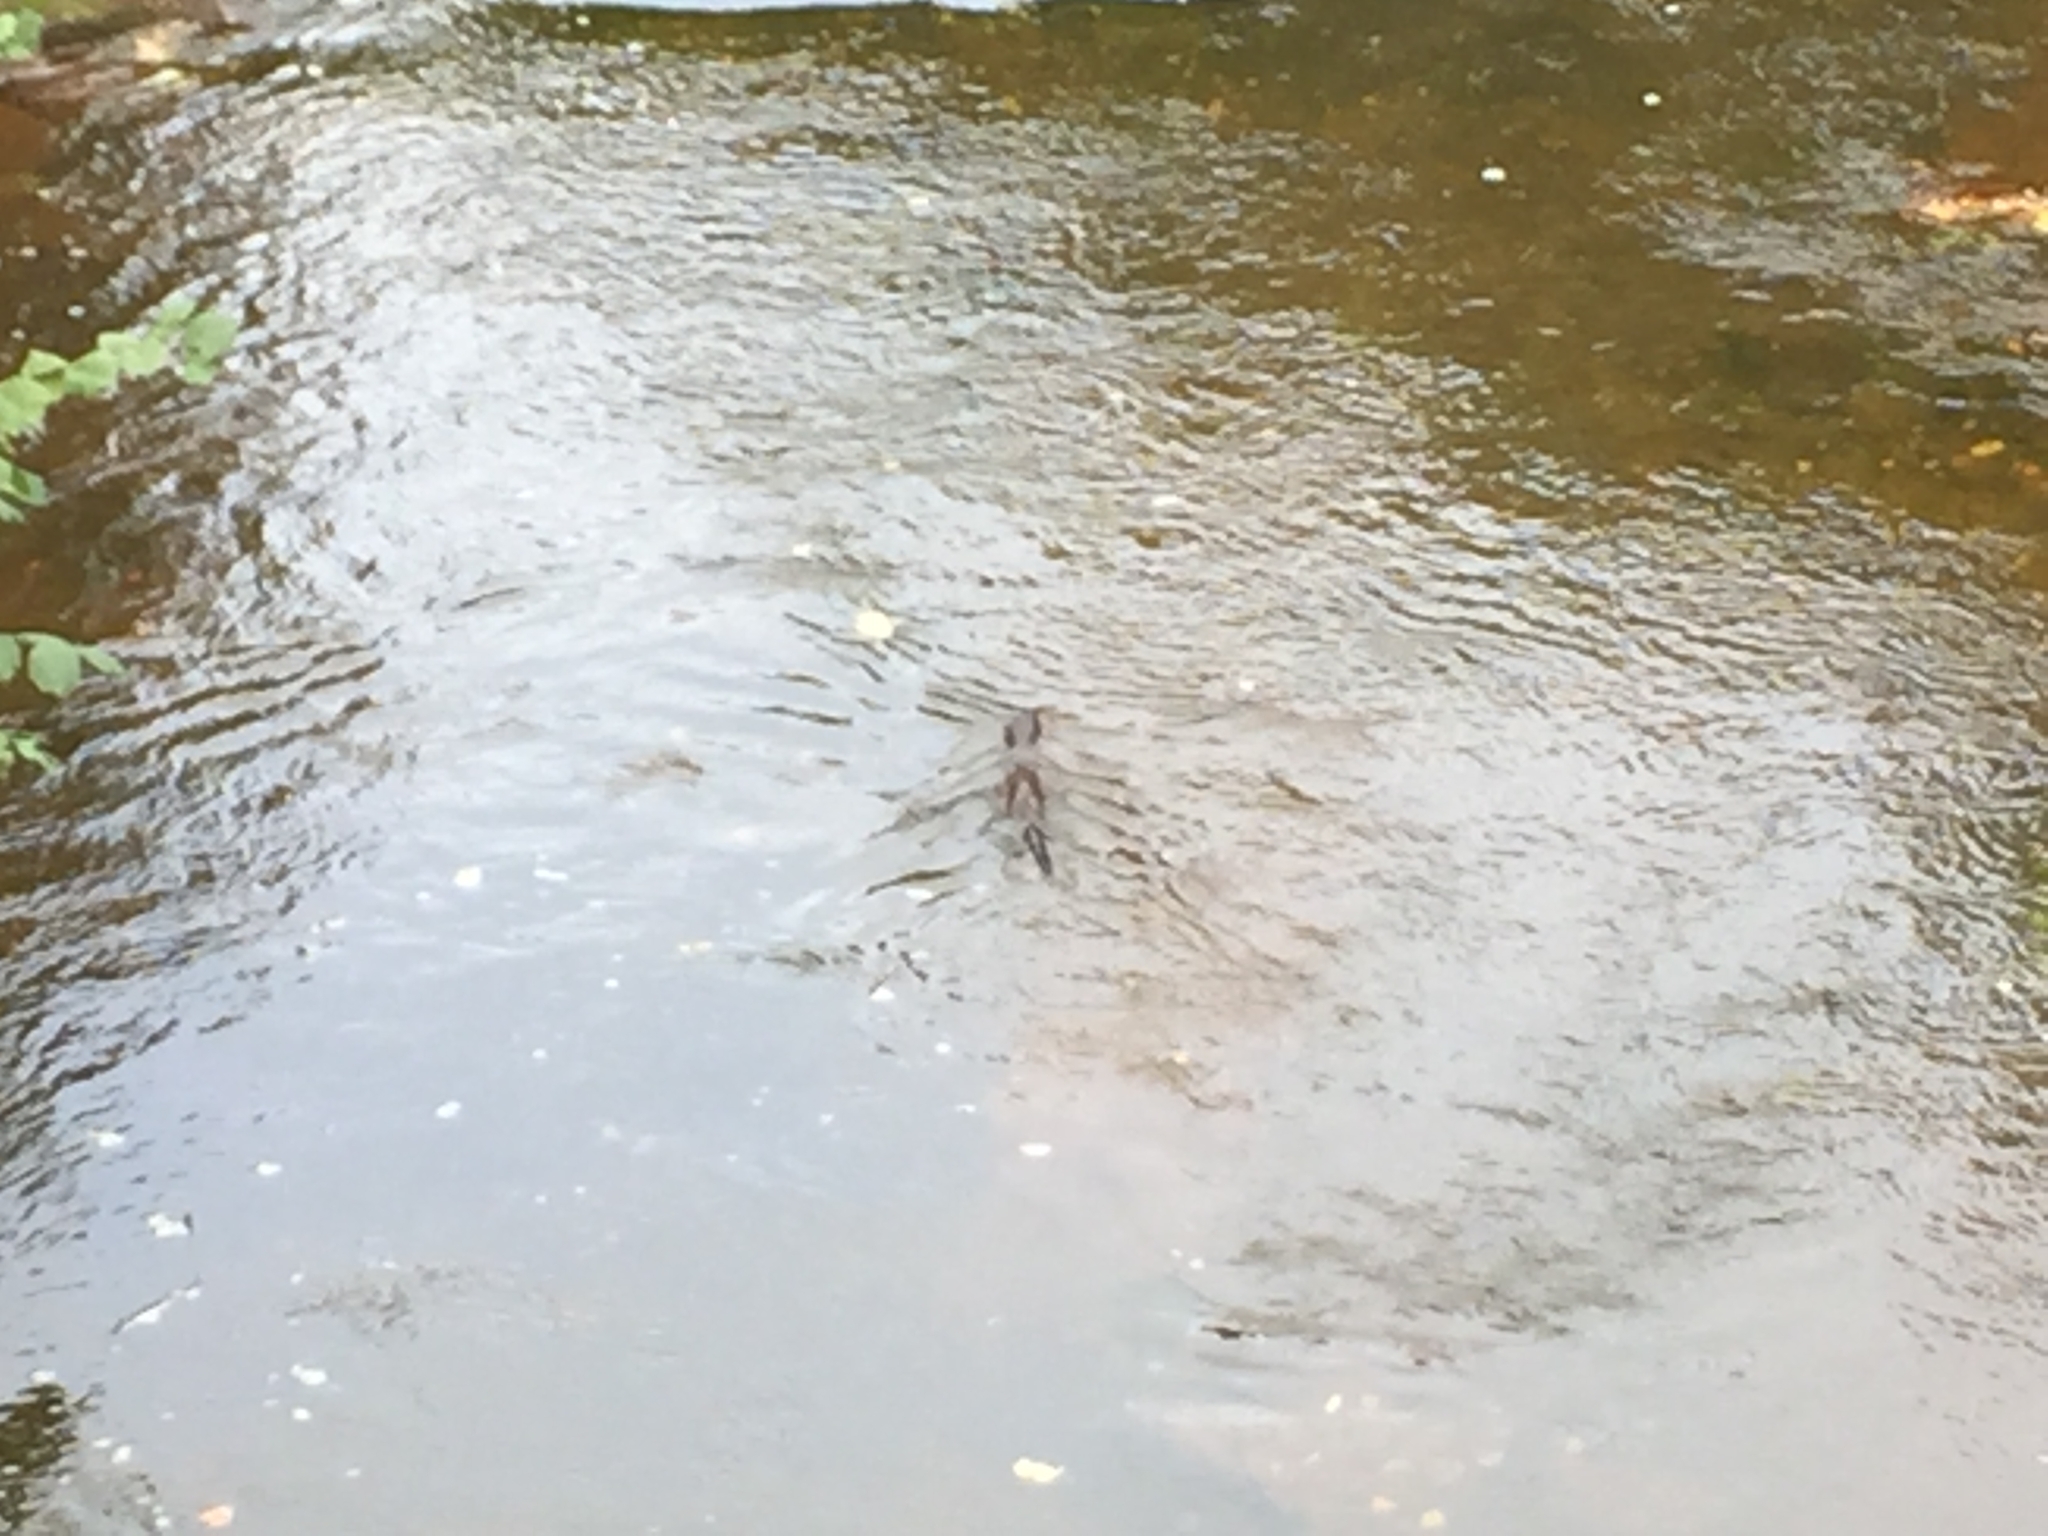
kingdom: Animalia
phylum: Chordata
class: Mammalia
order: Carnivora
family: Mustelidae
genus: Lutra
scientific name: Lutra lutra
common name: European otter
